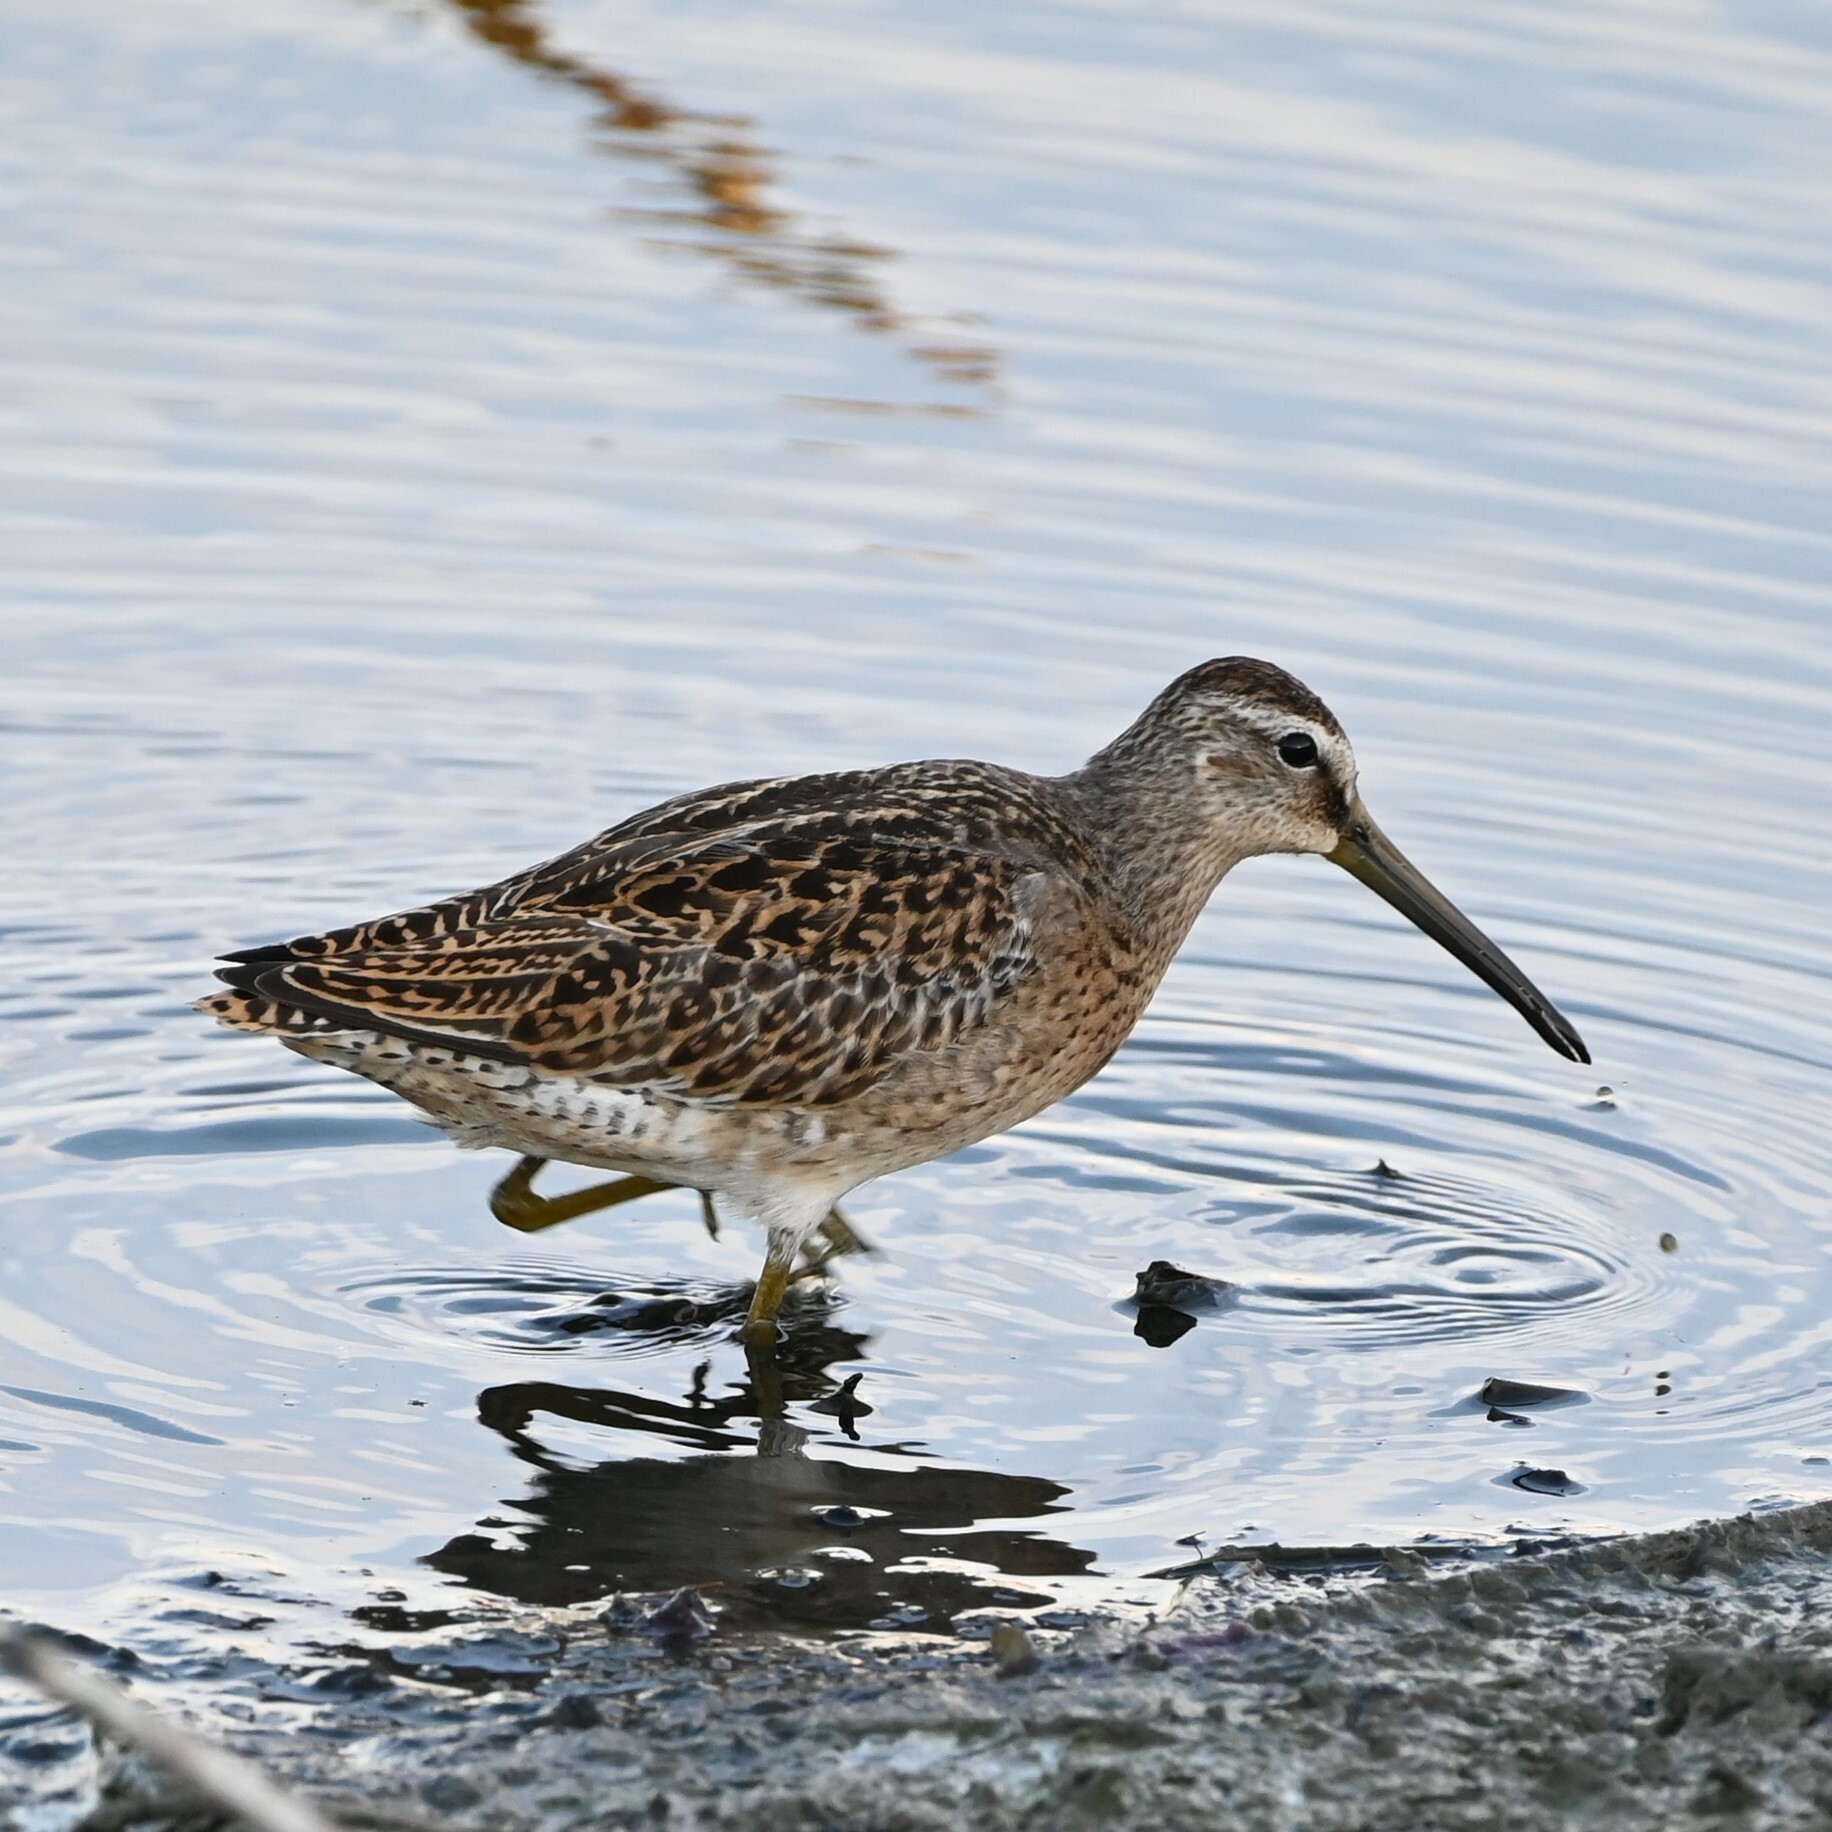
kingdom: Animalia
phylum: Chordata
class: Aves
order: Charadriiformes
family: Scolopacidae
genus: Limnodromus
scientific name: Limnodromus griseus
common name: Short-billed dowitcher
